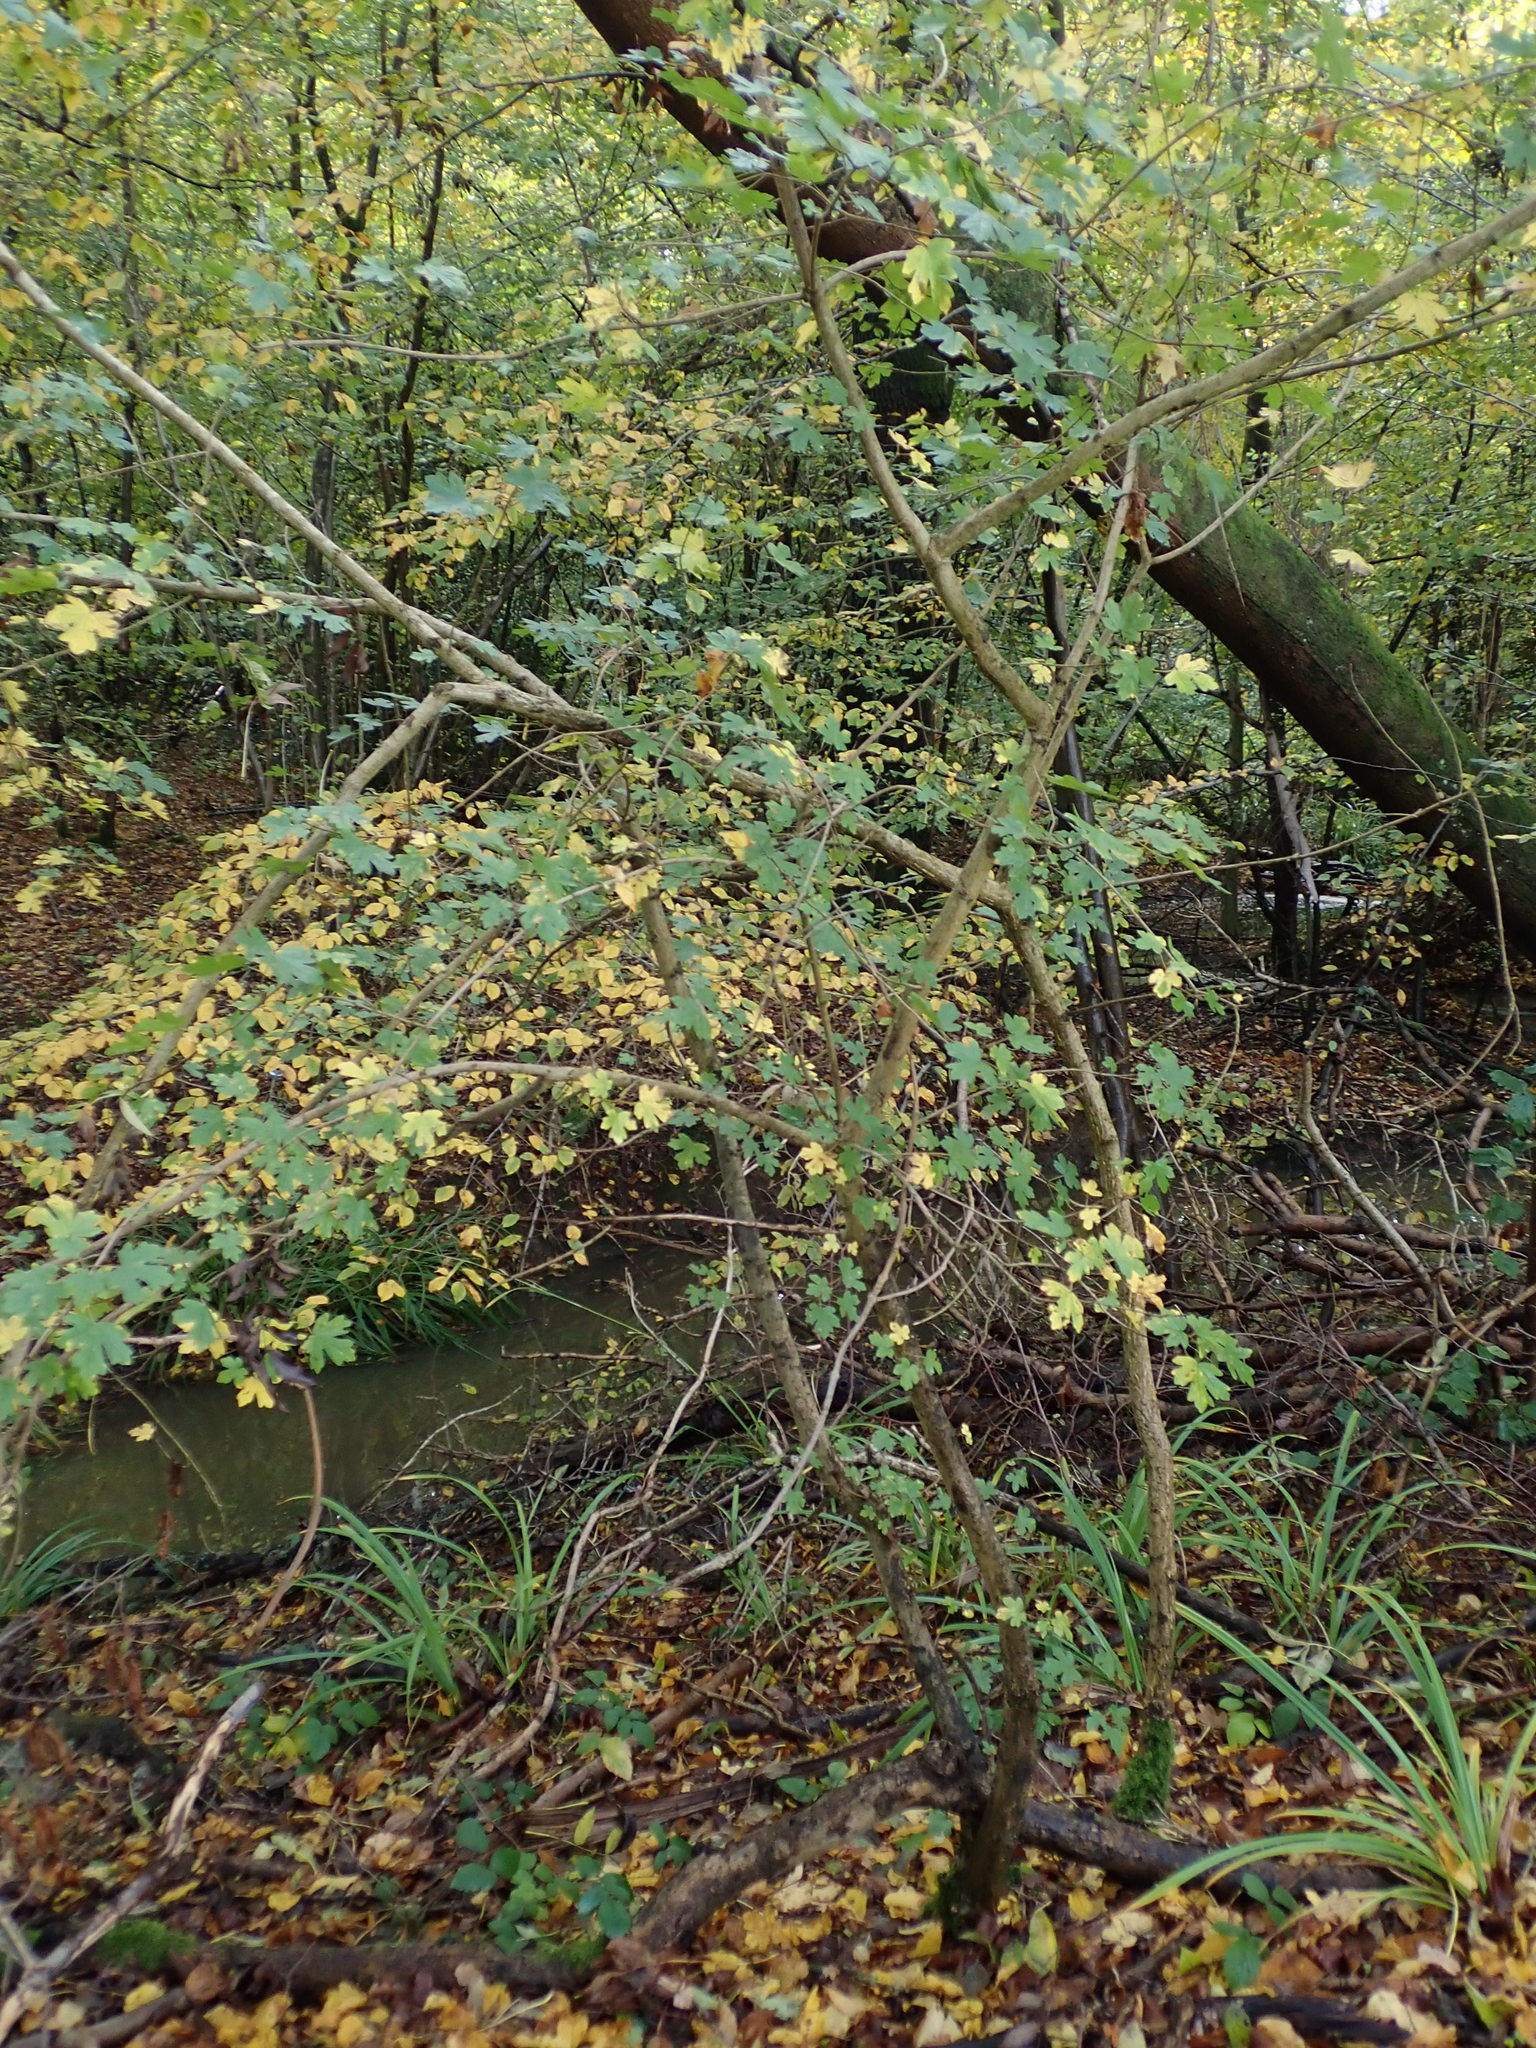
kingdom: Plantae
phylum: Tracheophyta
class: Magnoliopsida
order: Sapindales
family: Sapindaceae
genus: Acer
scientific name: Acer campestre
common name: Field maple
